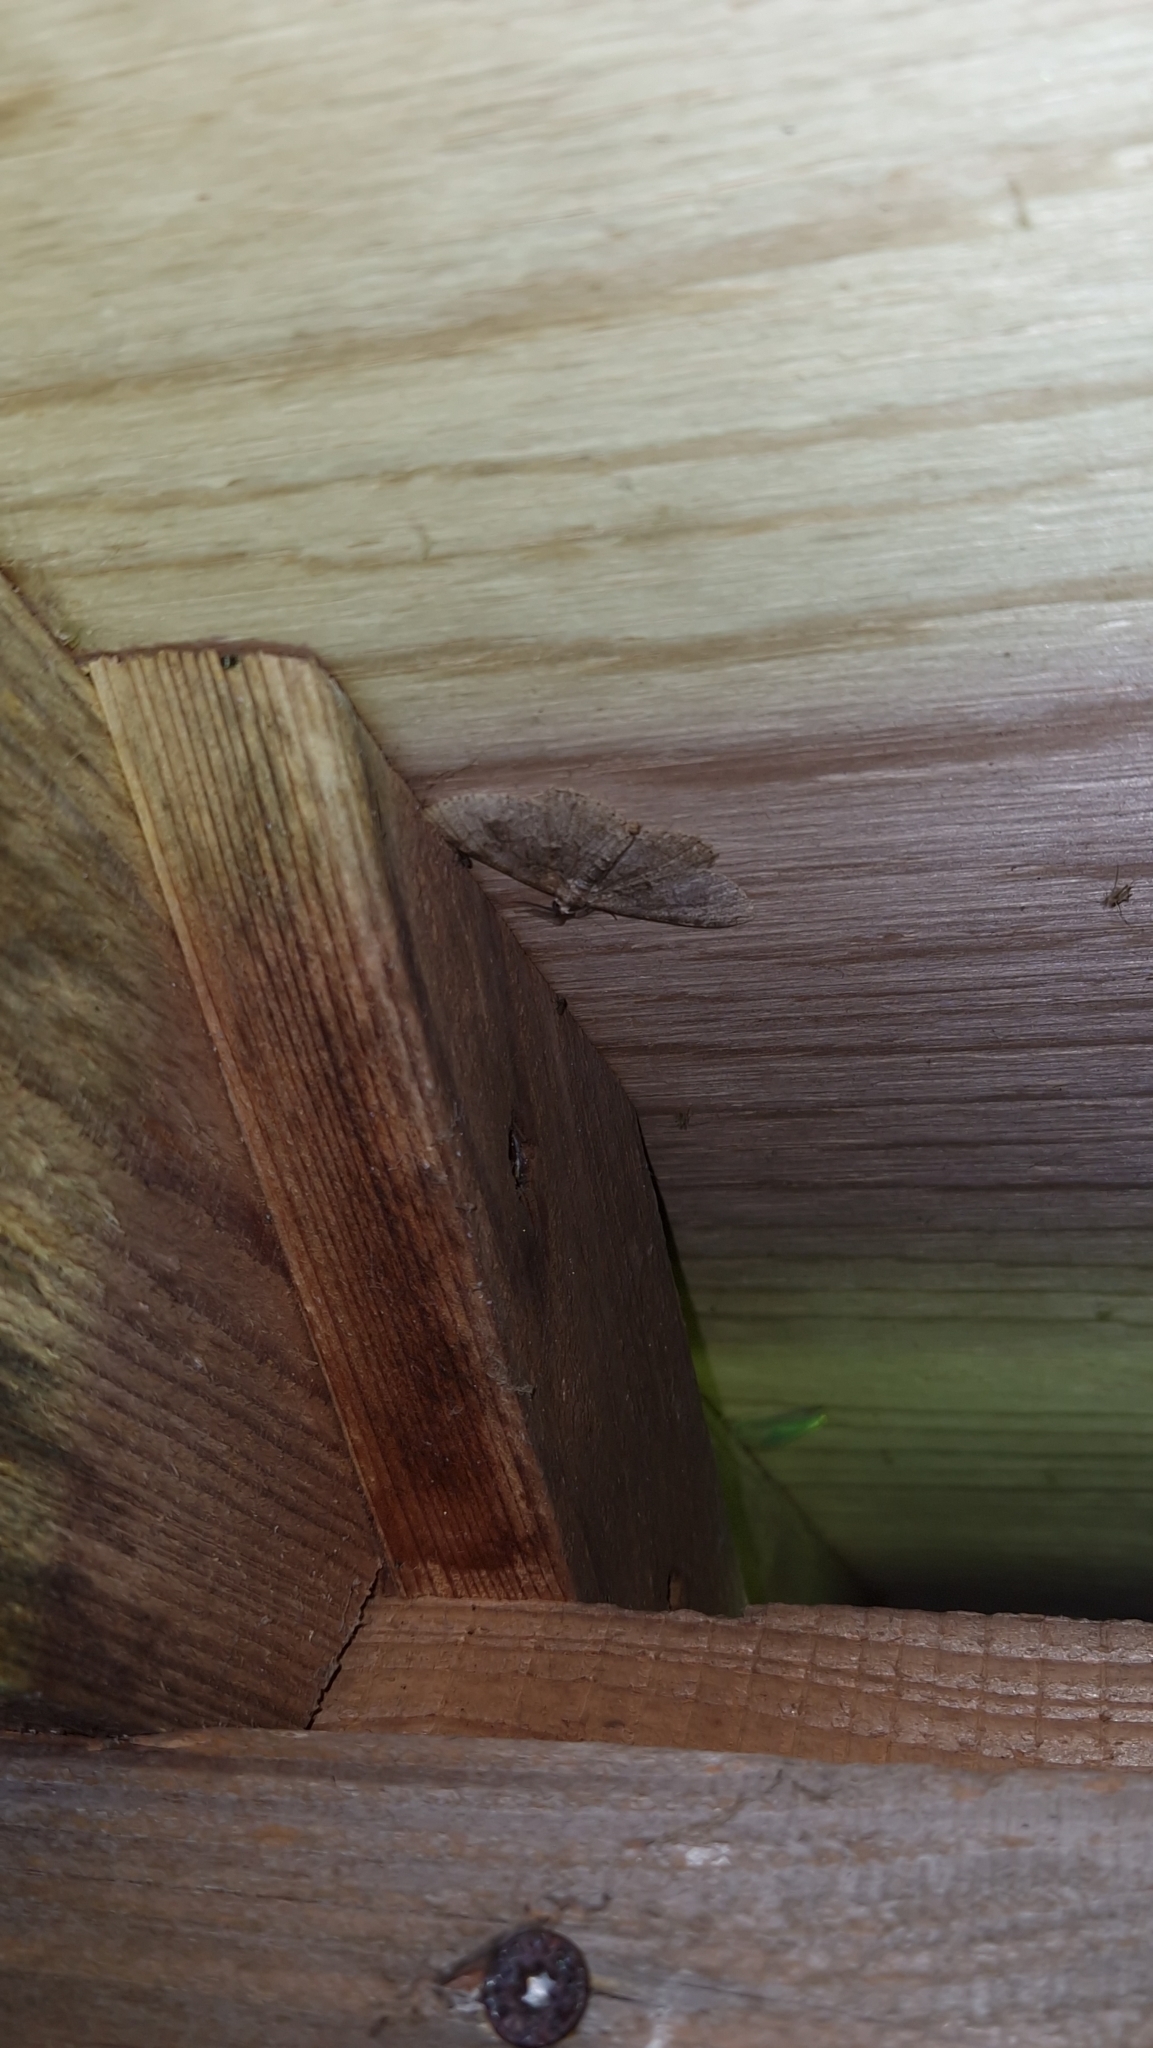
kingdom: Animalia
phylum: Arthropoda
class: Insecta
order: Lepidoptera
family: Geometridae
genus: Alcis
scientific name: Alcis repandata
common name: Mottled beauty
